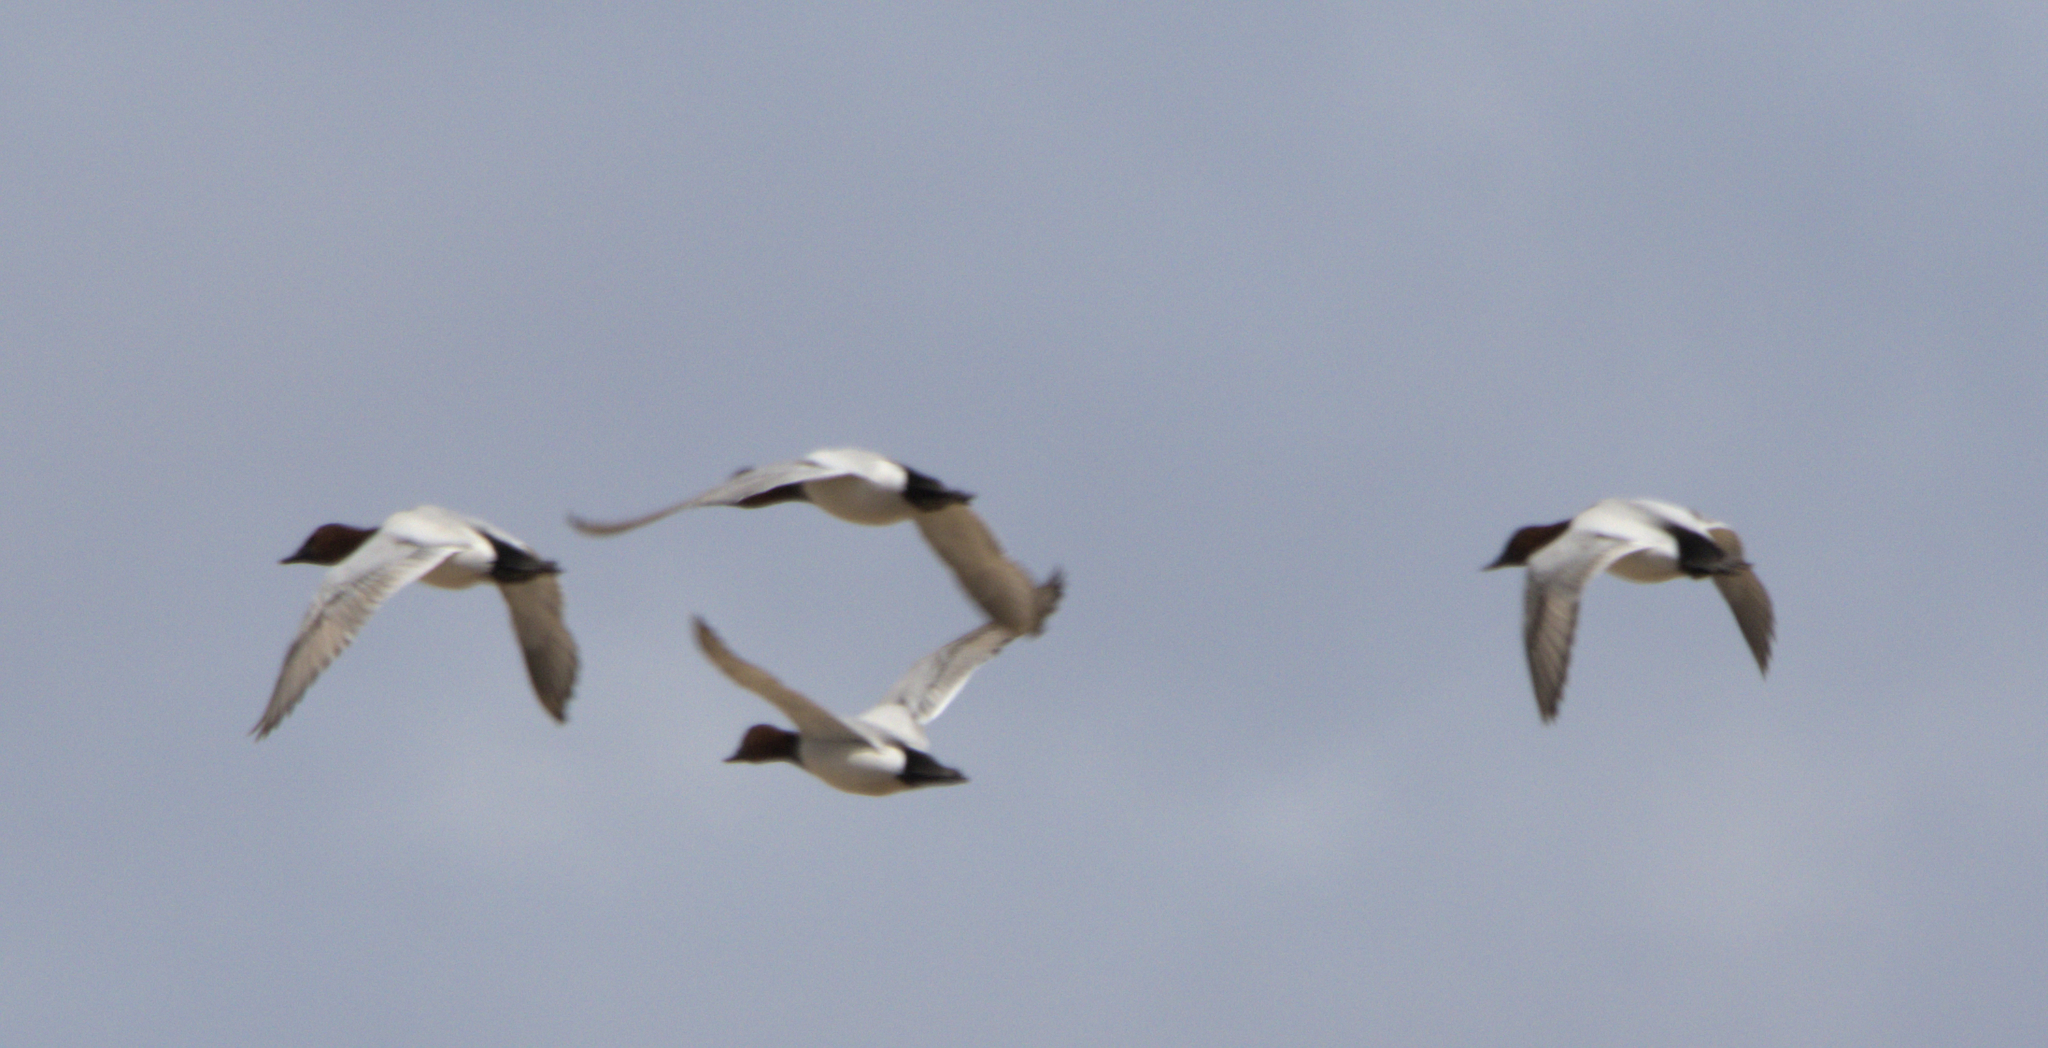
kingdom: Animalia
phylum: Chordata
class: Aves
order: Anseriformes
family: Anatidae
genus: Aythya
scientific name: Aythya valisineria
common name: Canvasback
